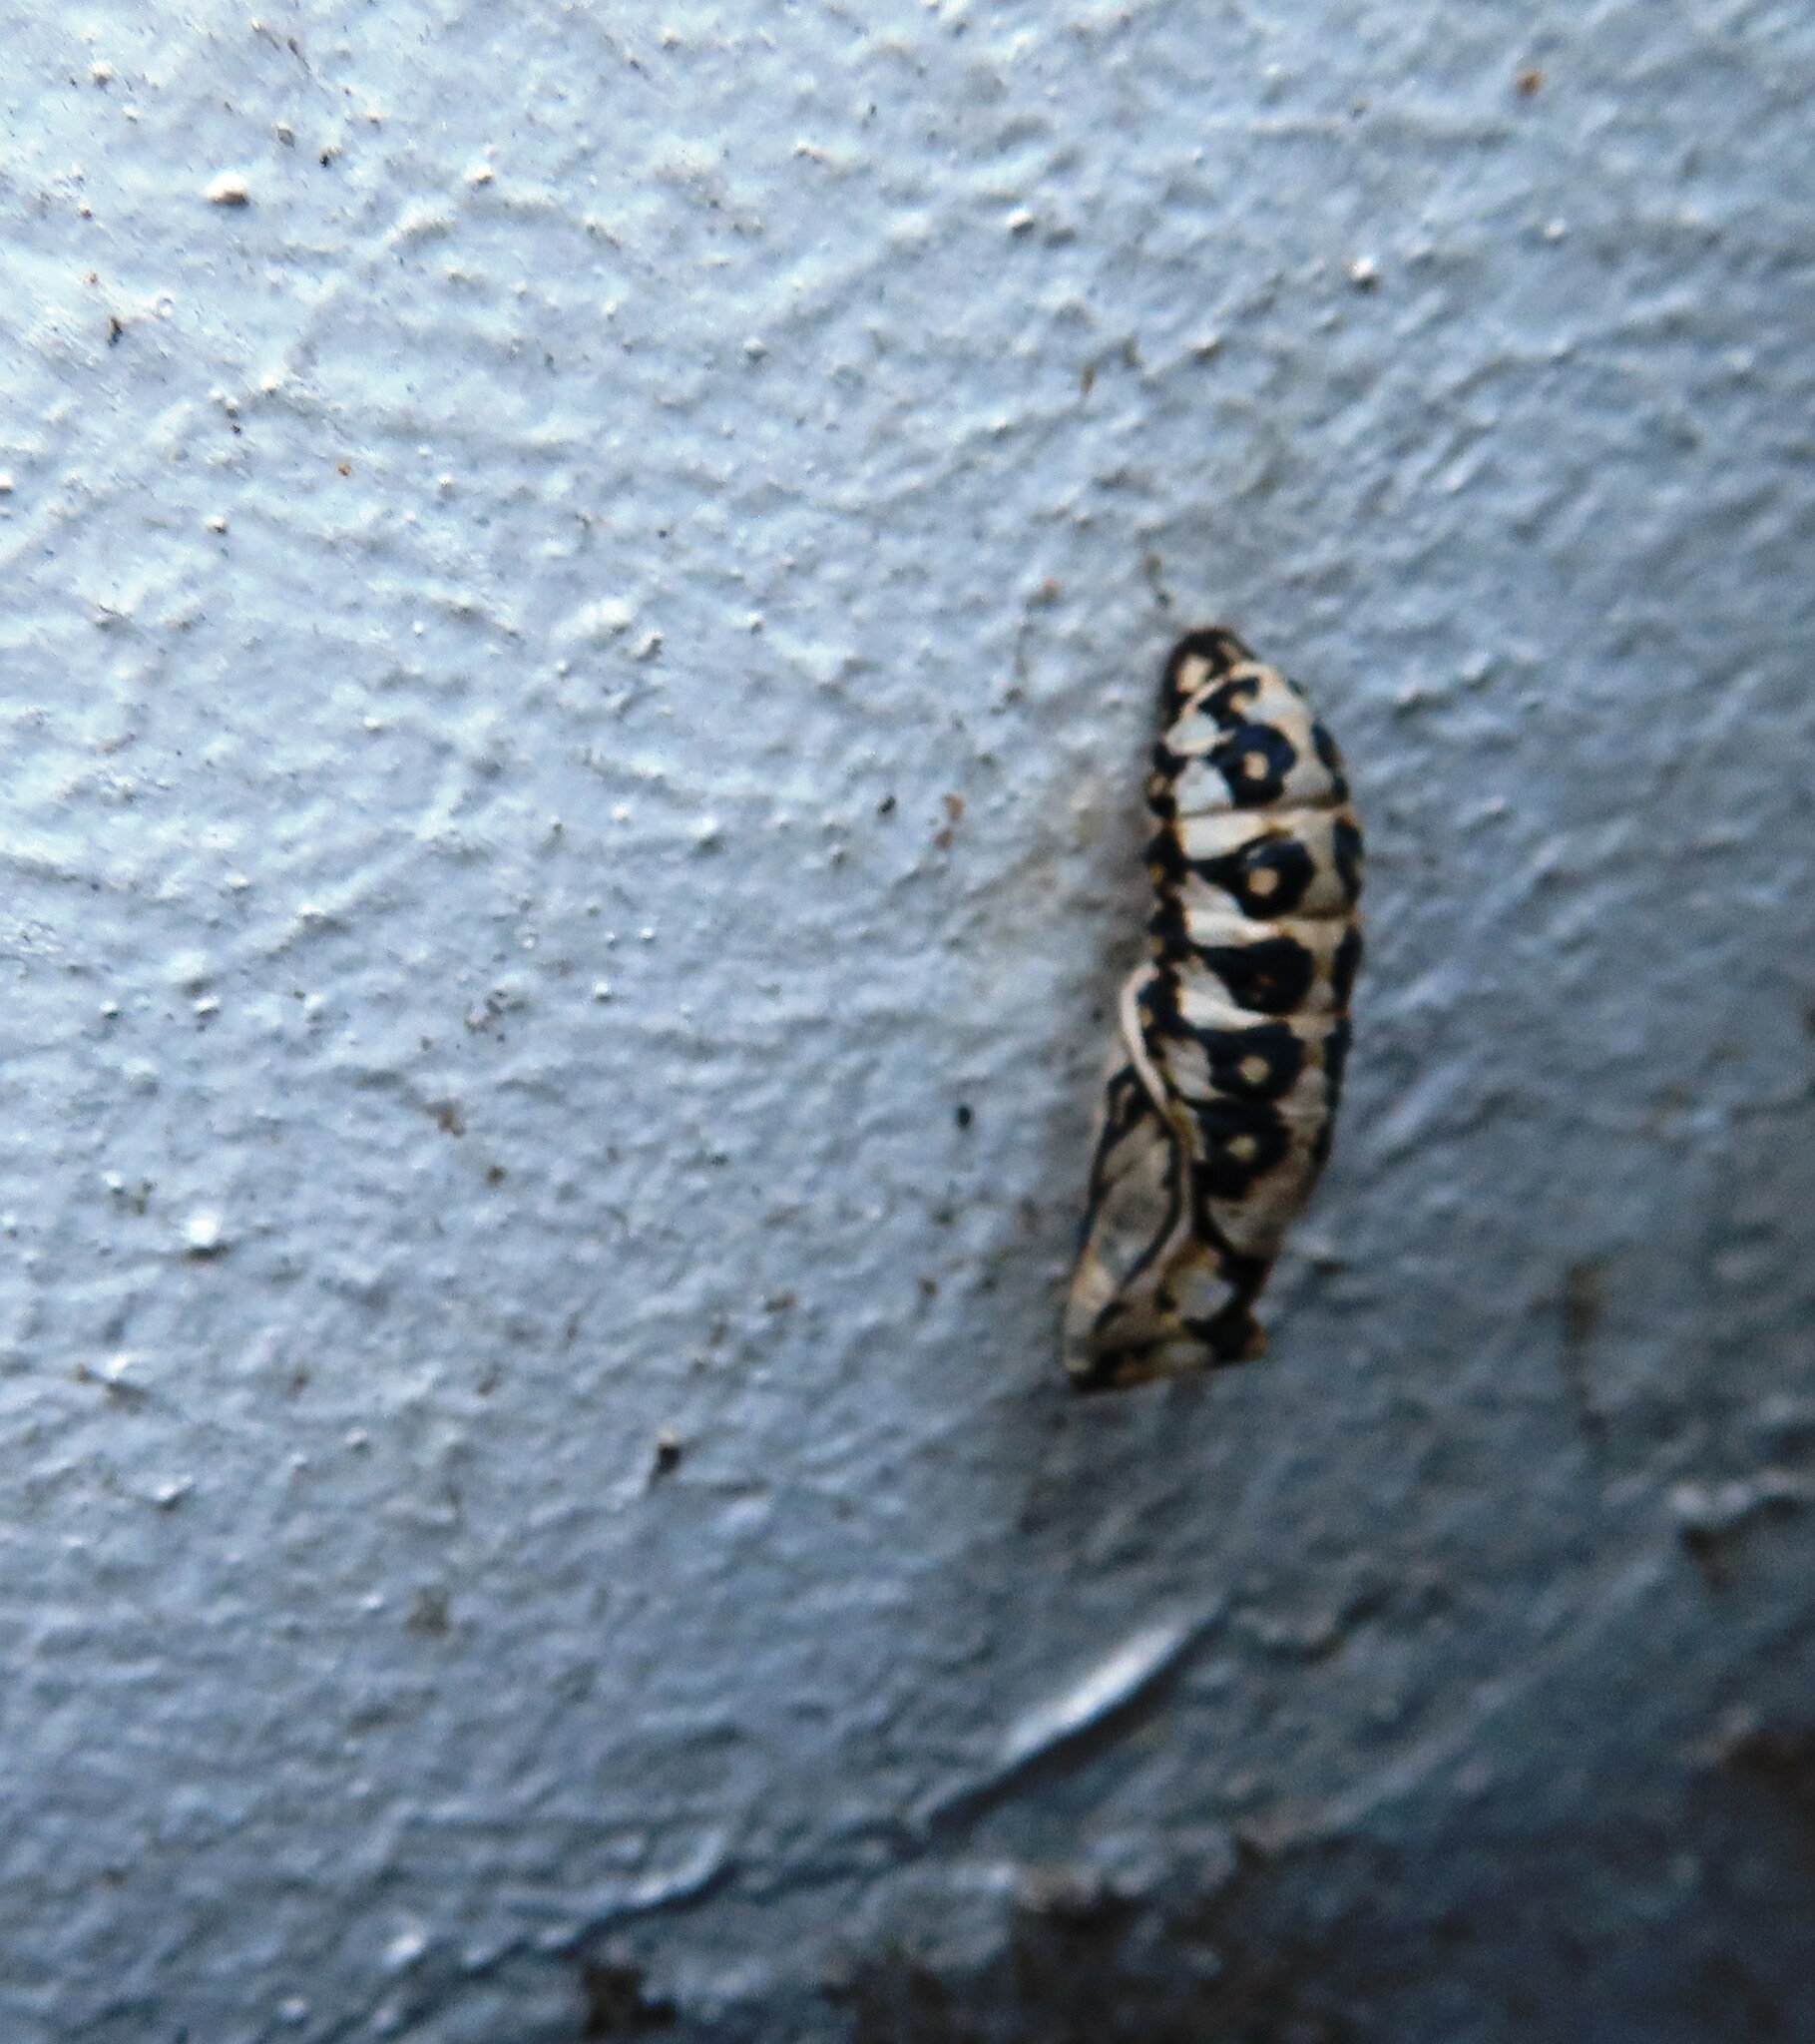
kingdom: Animalia
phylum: Arthropoda
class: Insecta
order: Lepidoptera
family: Nymphalidae
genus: Acraea
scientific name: Acraea horta
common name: Garden acraea
